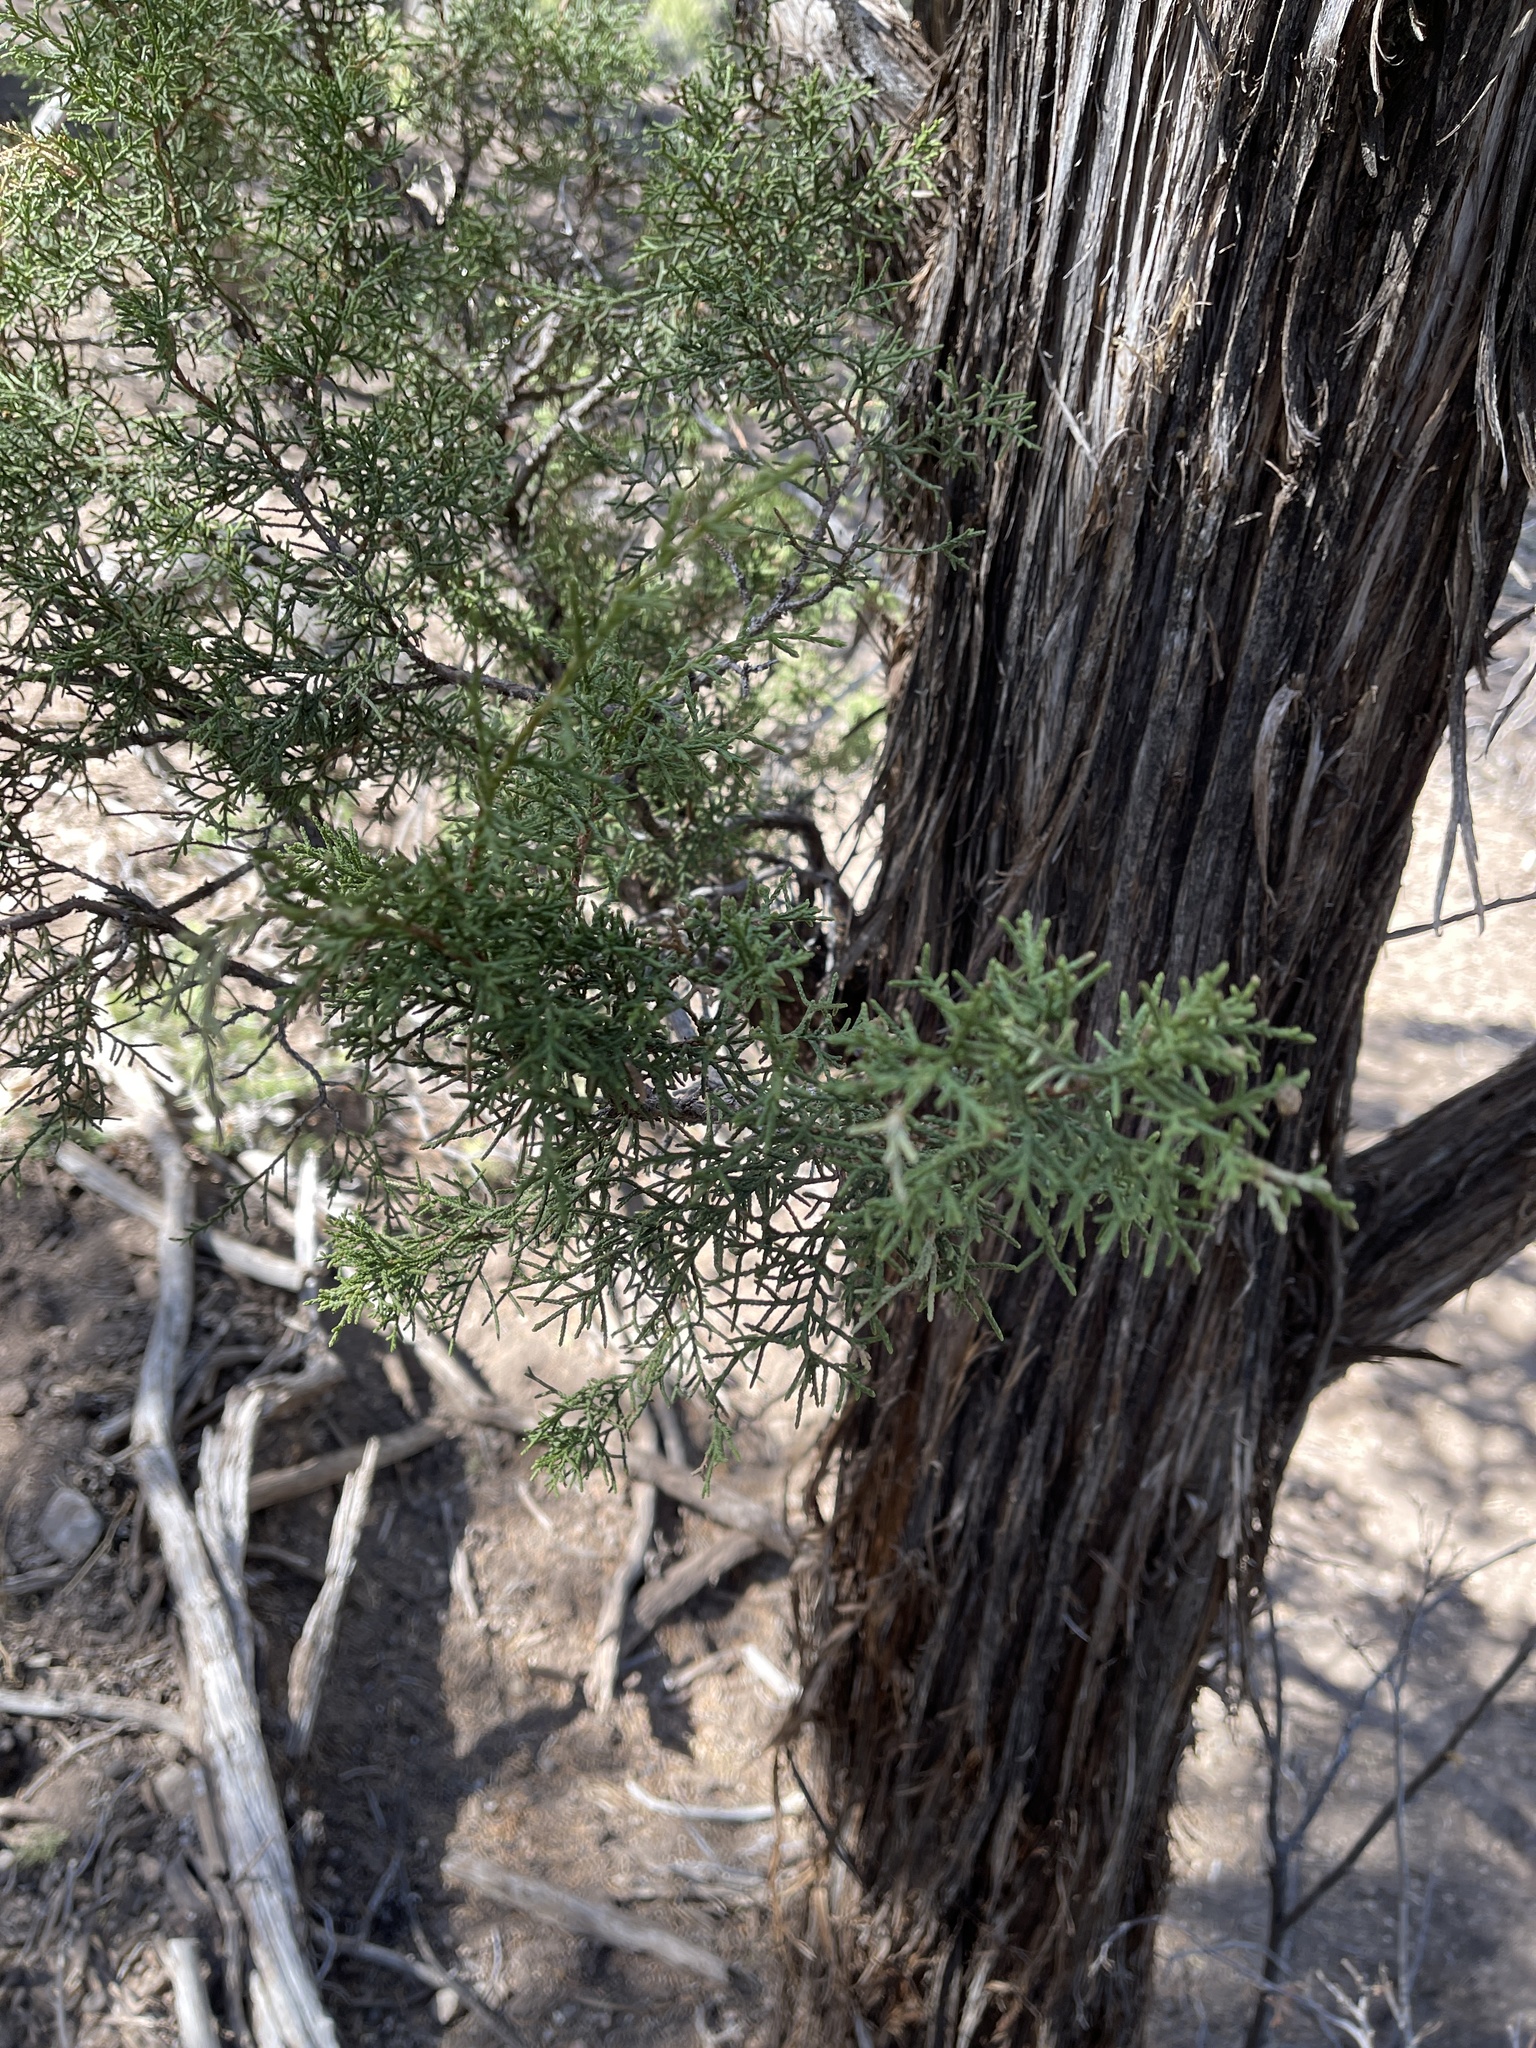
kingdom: Plantae
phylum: Tracheophyta
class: Pinopsida
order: Pinales
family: Cupressaceae
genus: Juniperus
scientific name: Juniperus monosperma
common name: One-seed juniper
